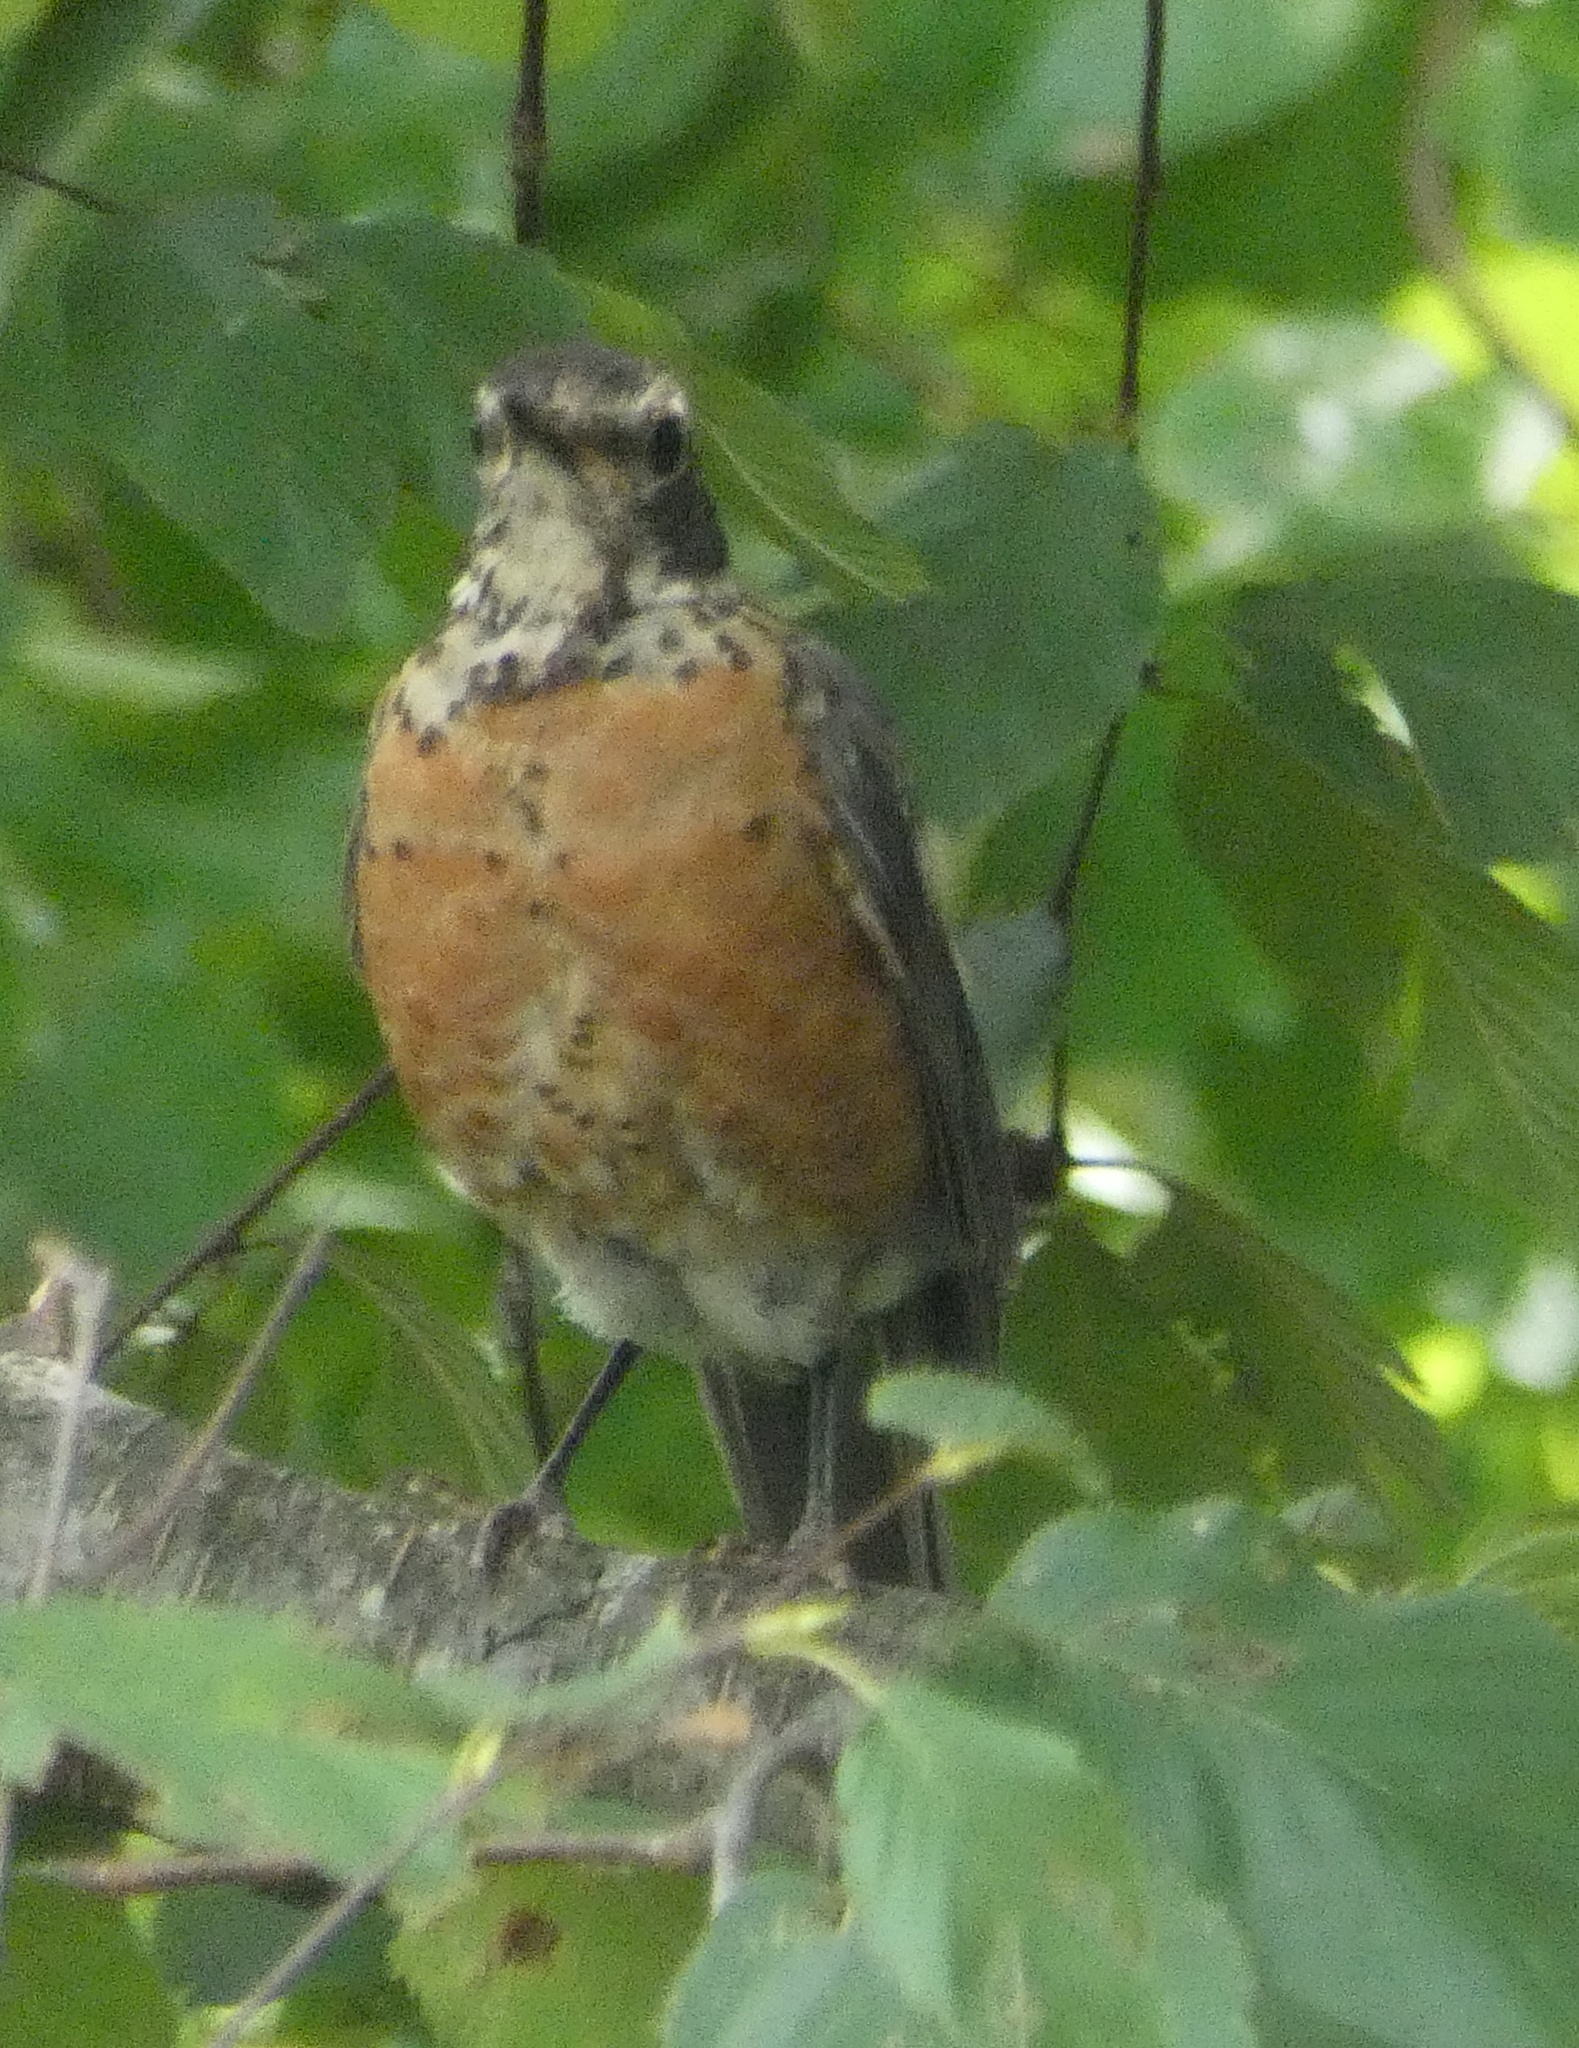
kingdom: Animalia
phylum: Chordata
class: Aves
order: Passeriformes
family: Turdidae
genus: Turdus
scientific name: Turdus migratorius
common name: American robin
